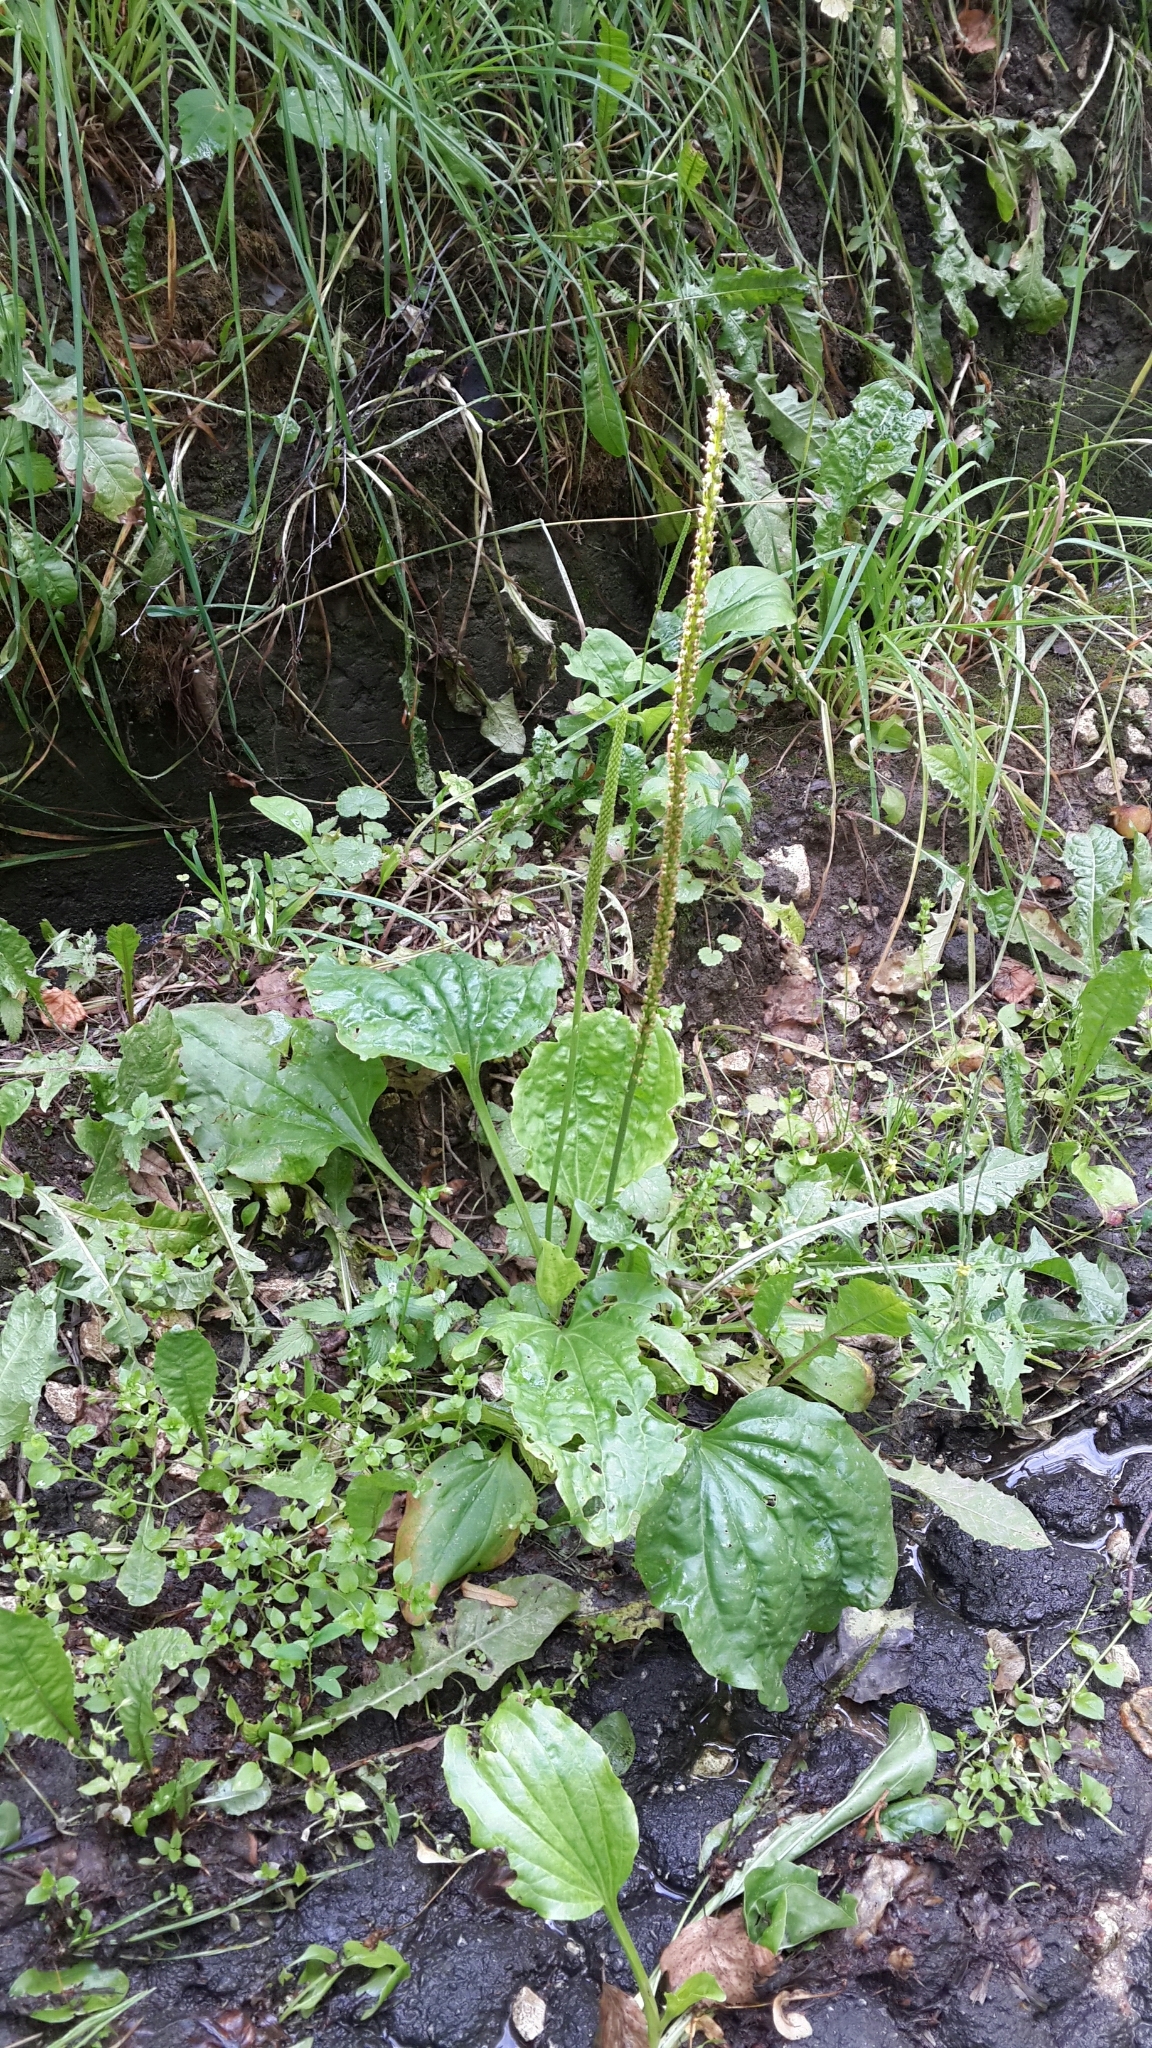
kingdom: Plantae
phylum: Tracheophyta
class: Magnoliopsida
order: Lamiales
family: Plantaginaceae
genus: Plantago
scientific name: Plantago major
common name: Common plantain
